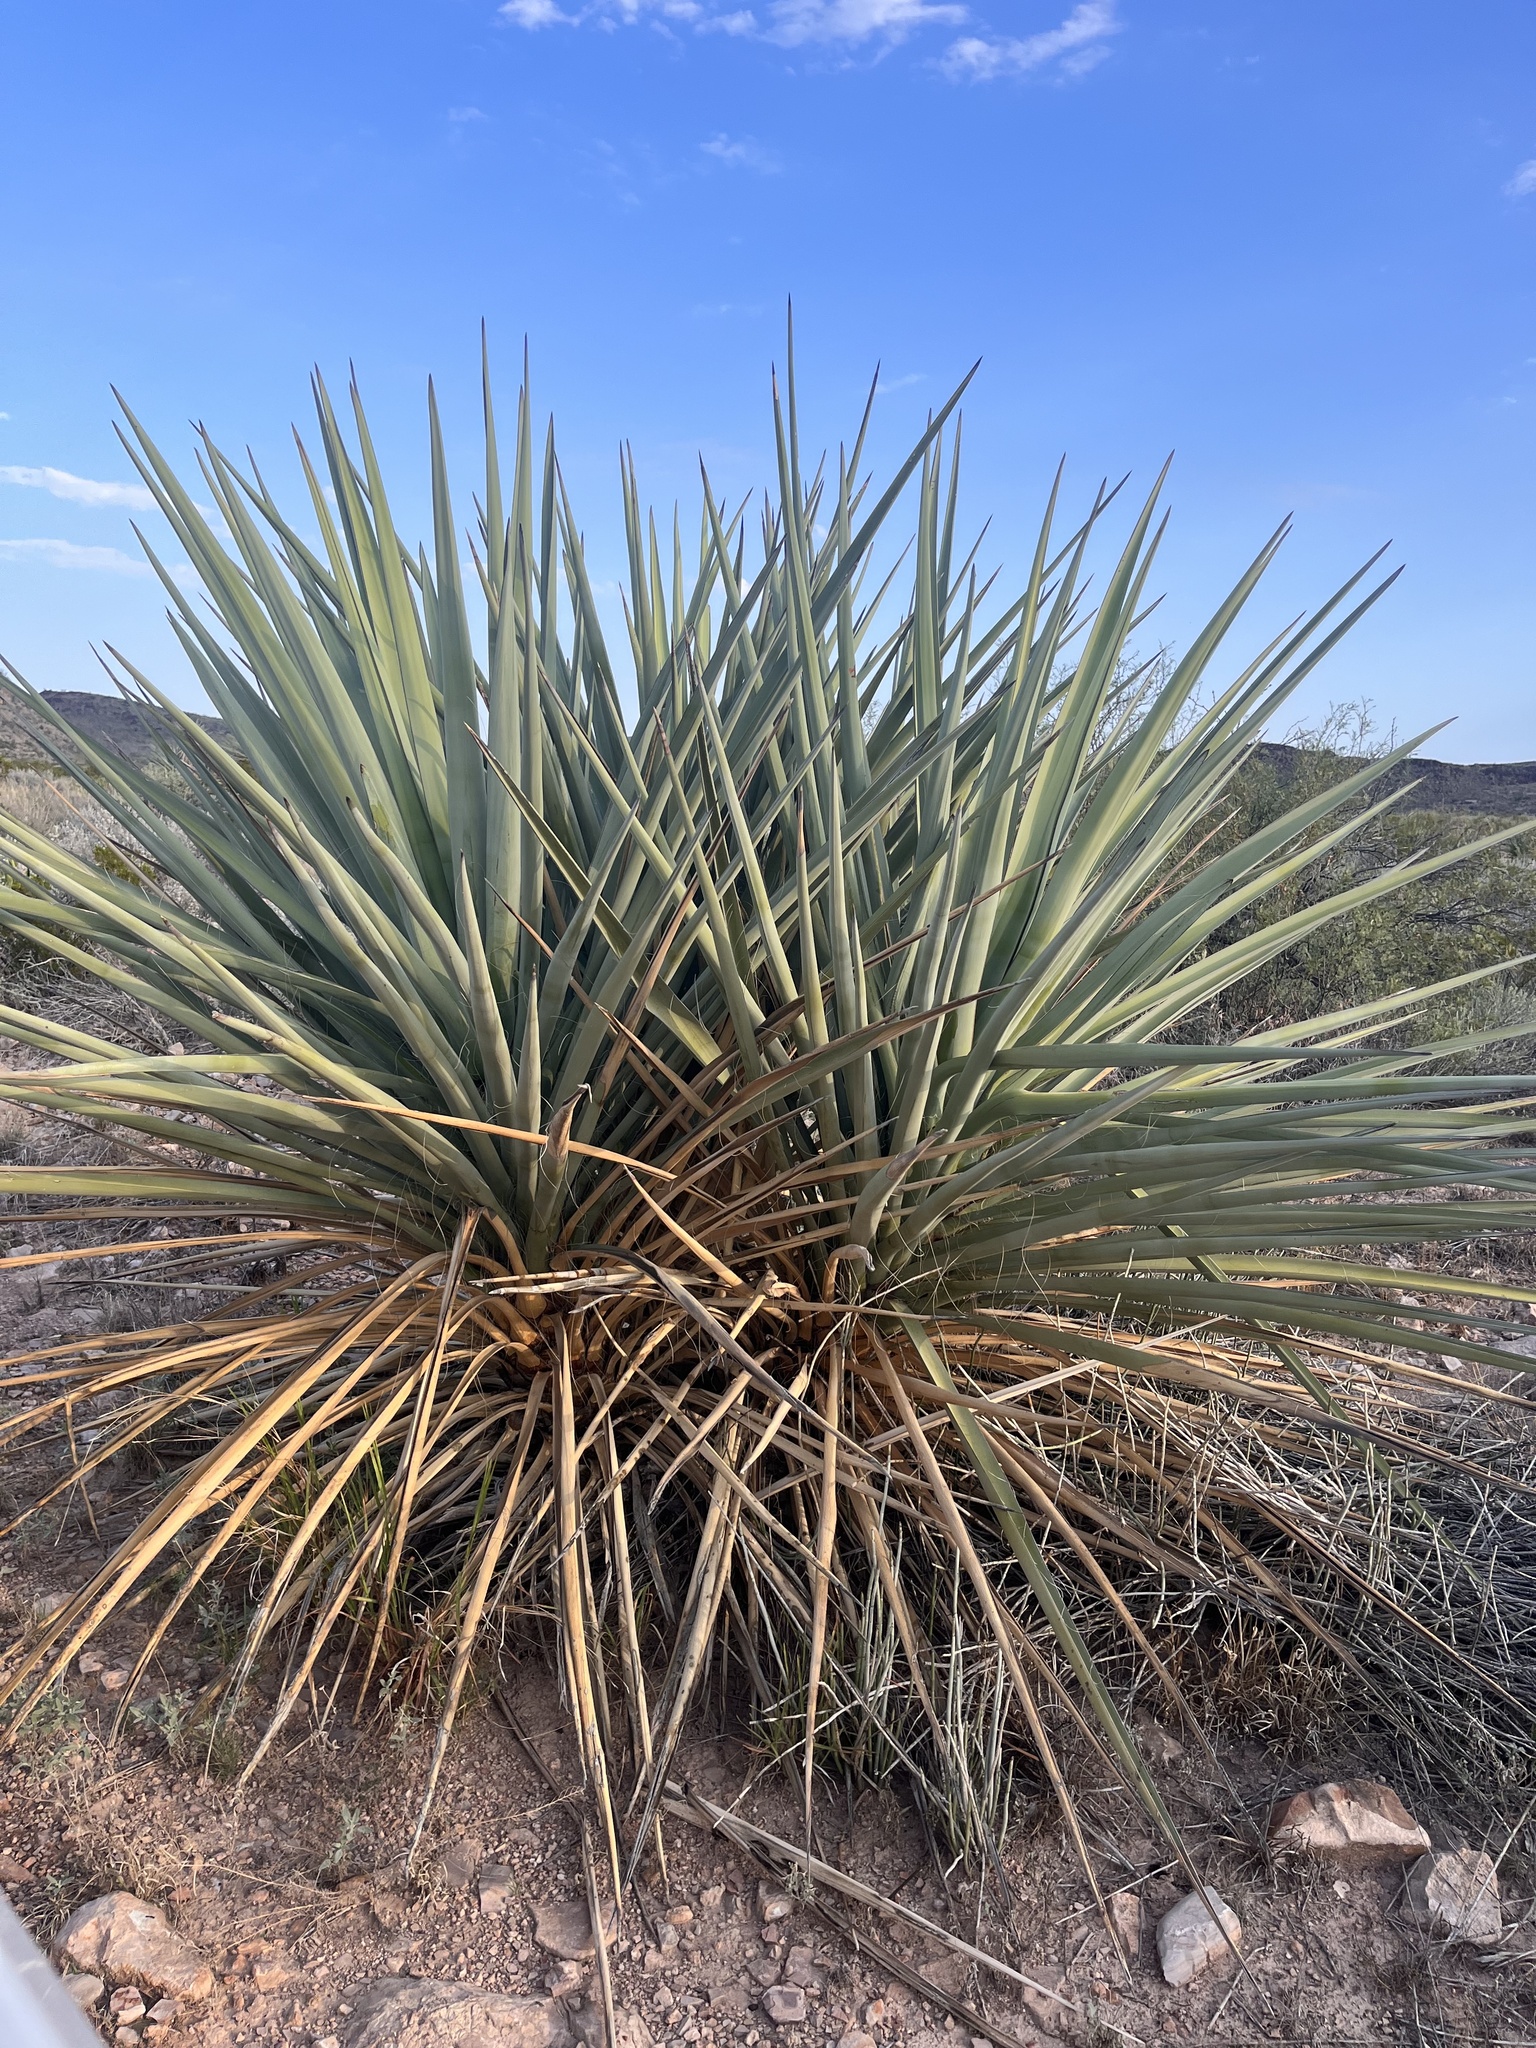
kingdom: Plantae
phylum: Tracheophyta
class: Liliopsida
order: Asparagales
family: Asparagaceae
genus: Yucca
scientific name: Yucca treculiana
